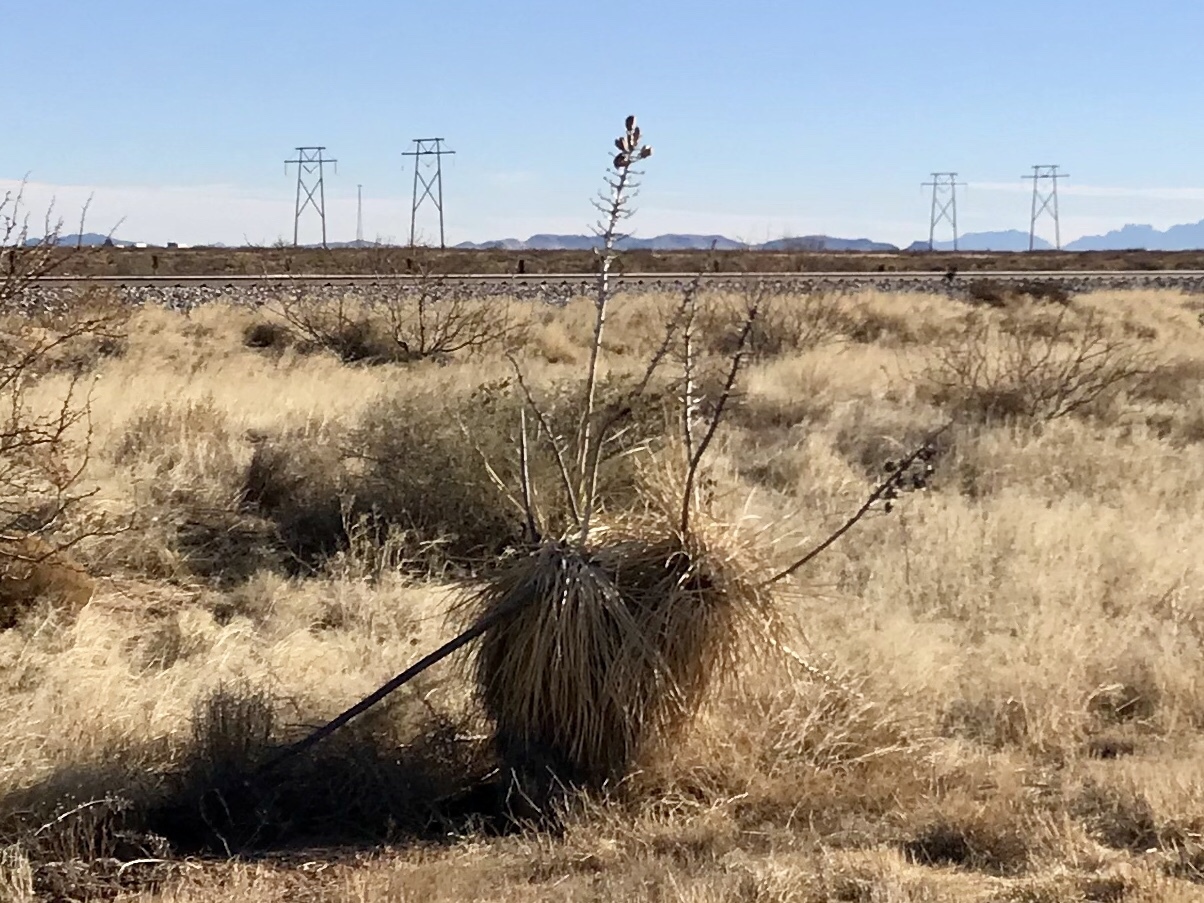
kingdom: Plantae
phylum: Tracheophyta
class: Liliopsida
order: Asparagales
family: Asparagaceae
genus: Yucca
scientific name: Yucca elata
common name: Palmella
